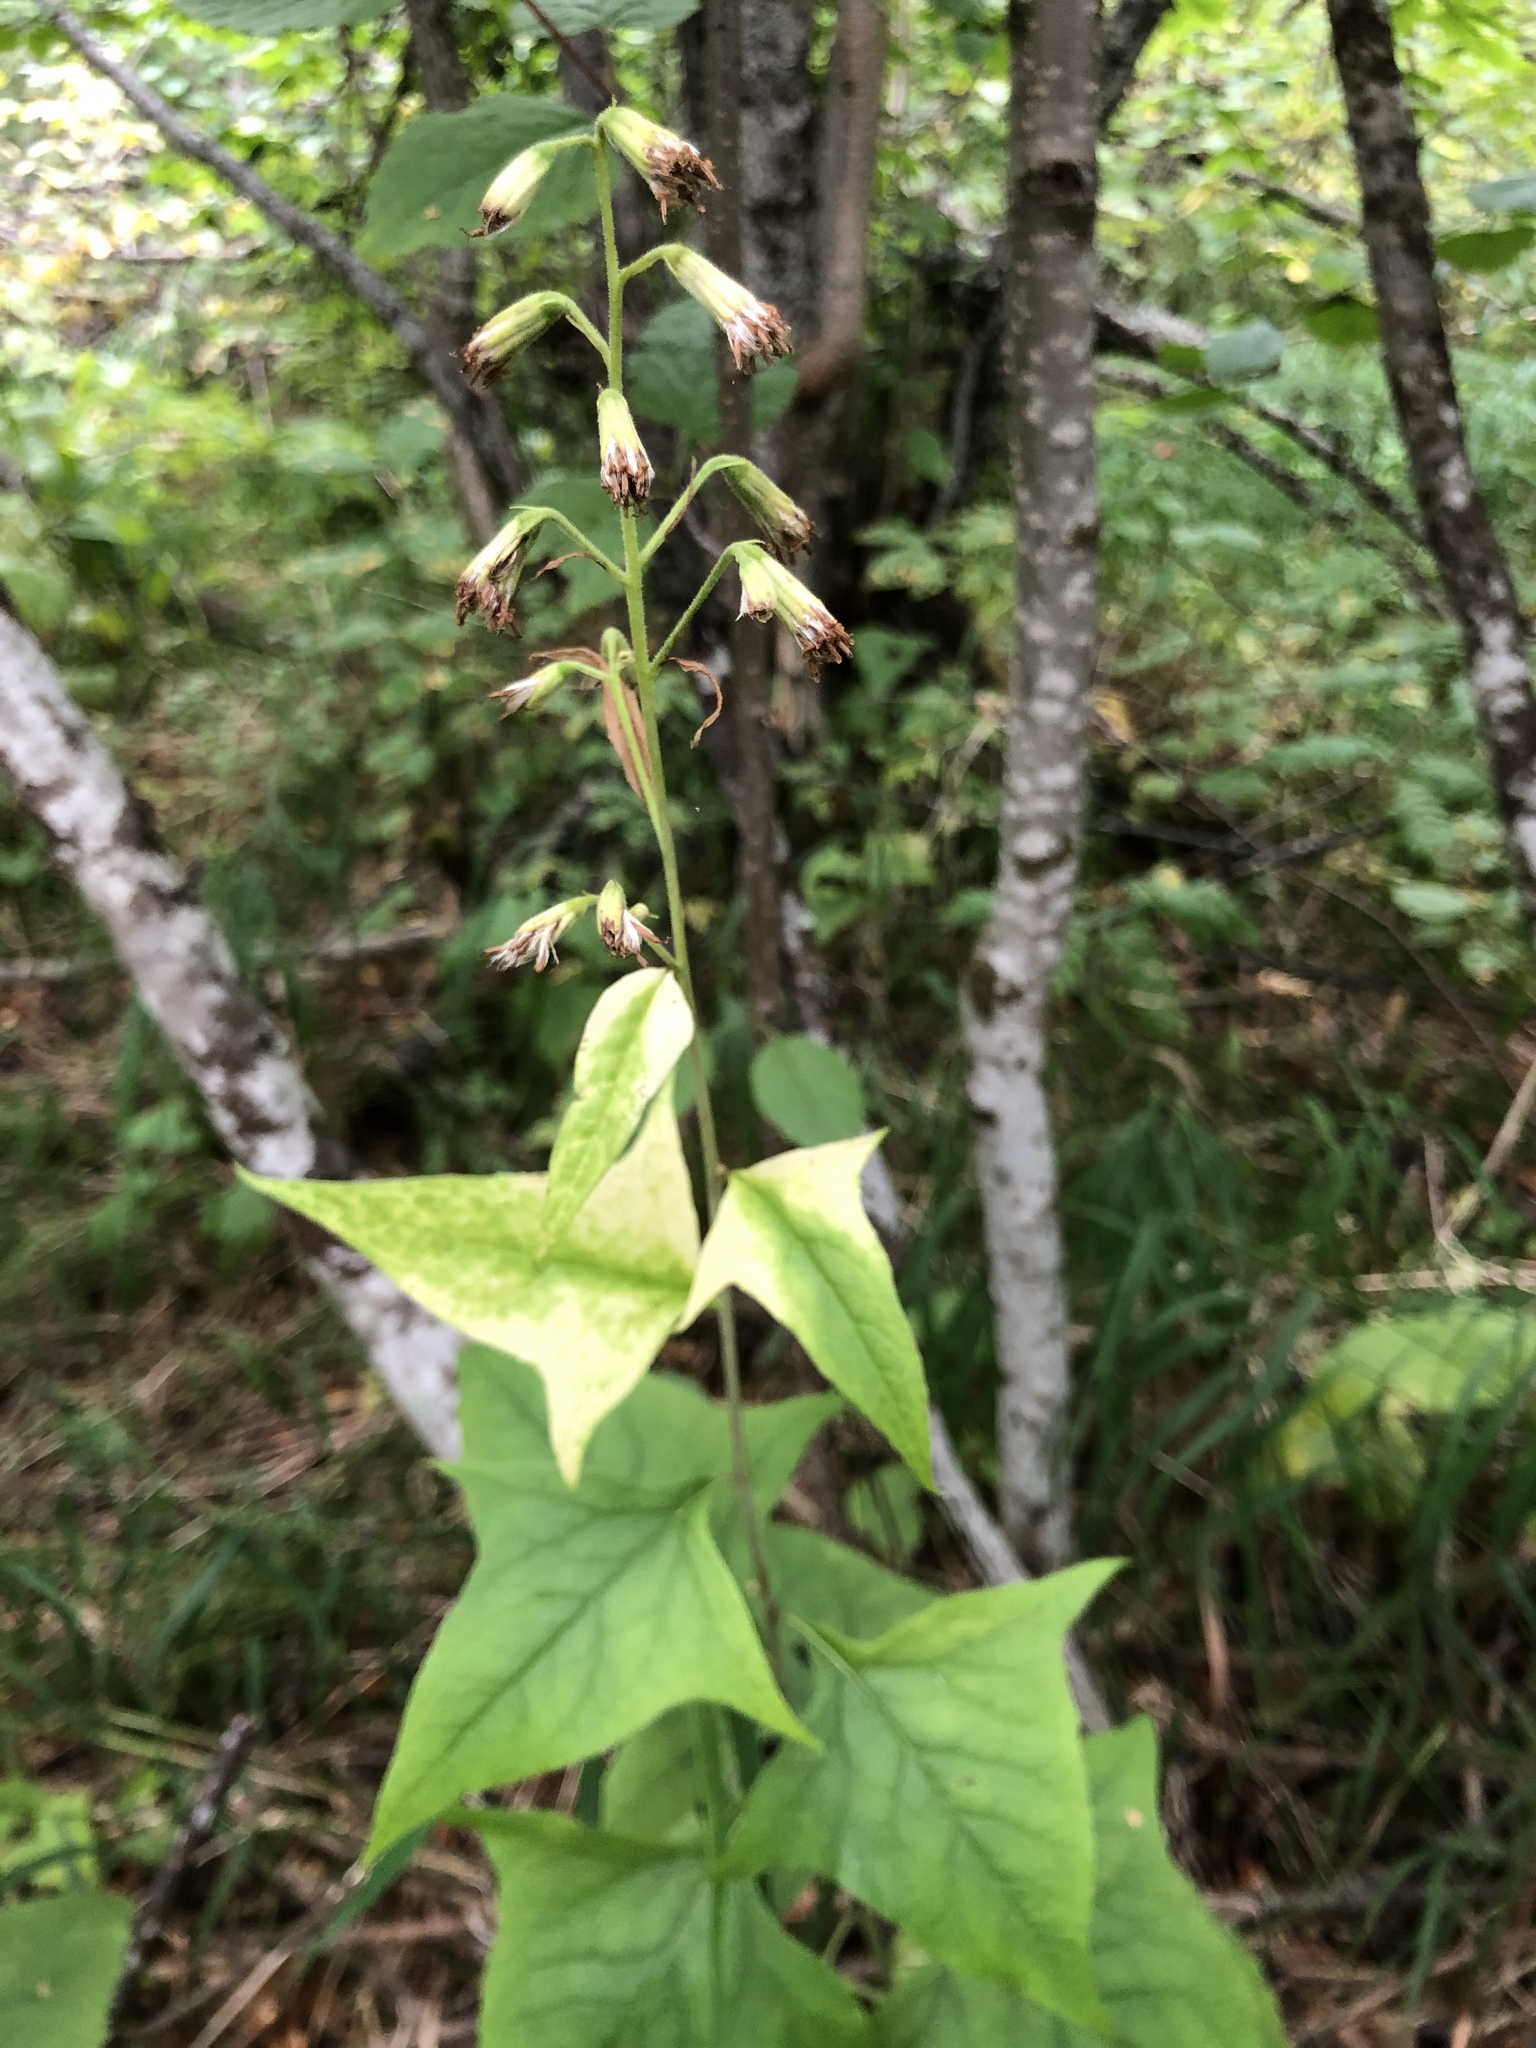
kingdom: Plantae
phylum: Tracheophyta
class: Magnoliopsida
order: Asterales
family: Asteraceae
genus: Parasenecio
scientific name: Parasenecio hastatus
